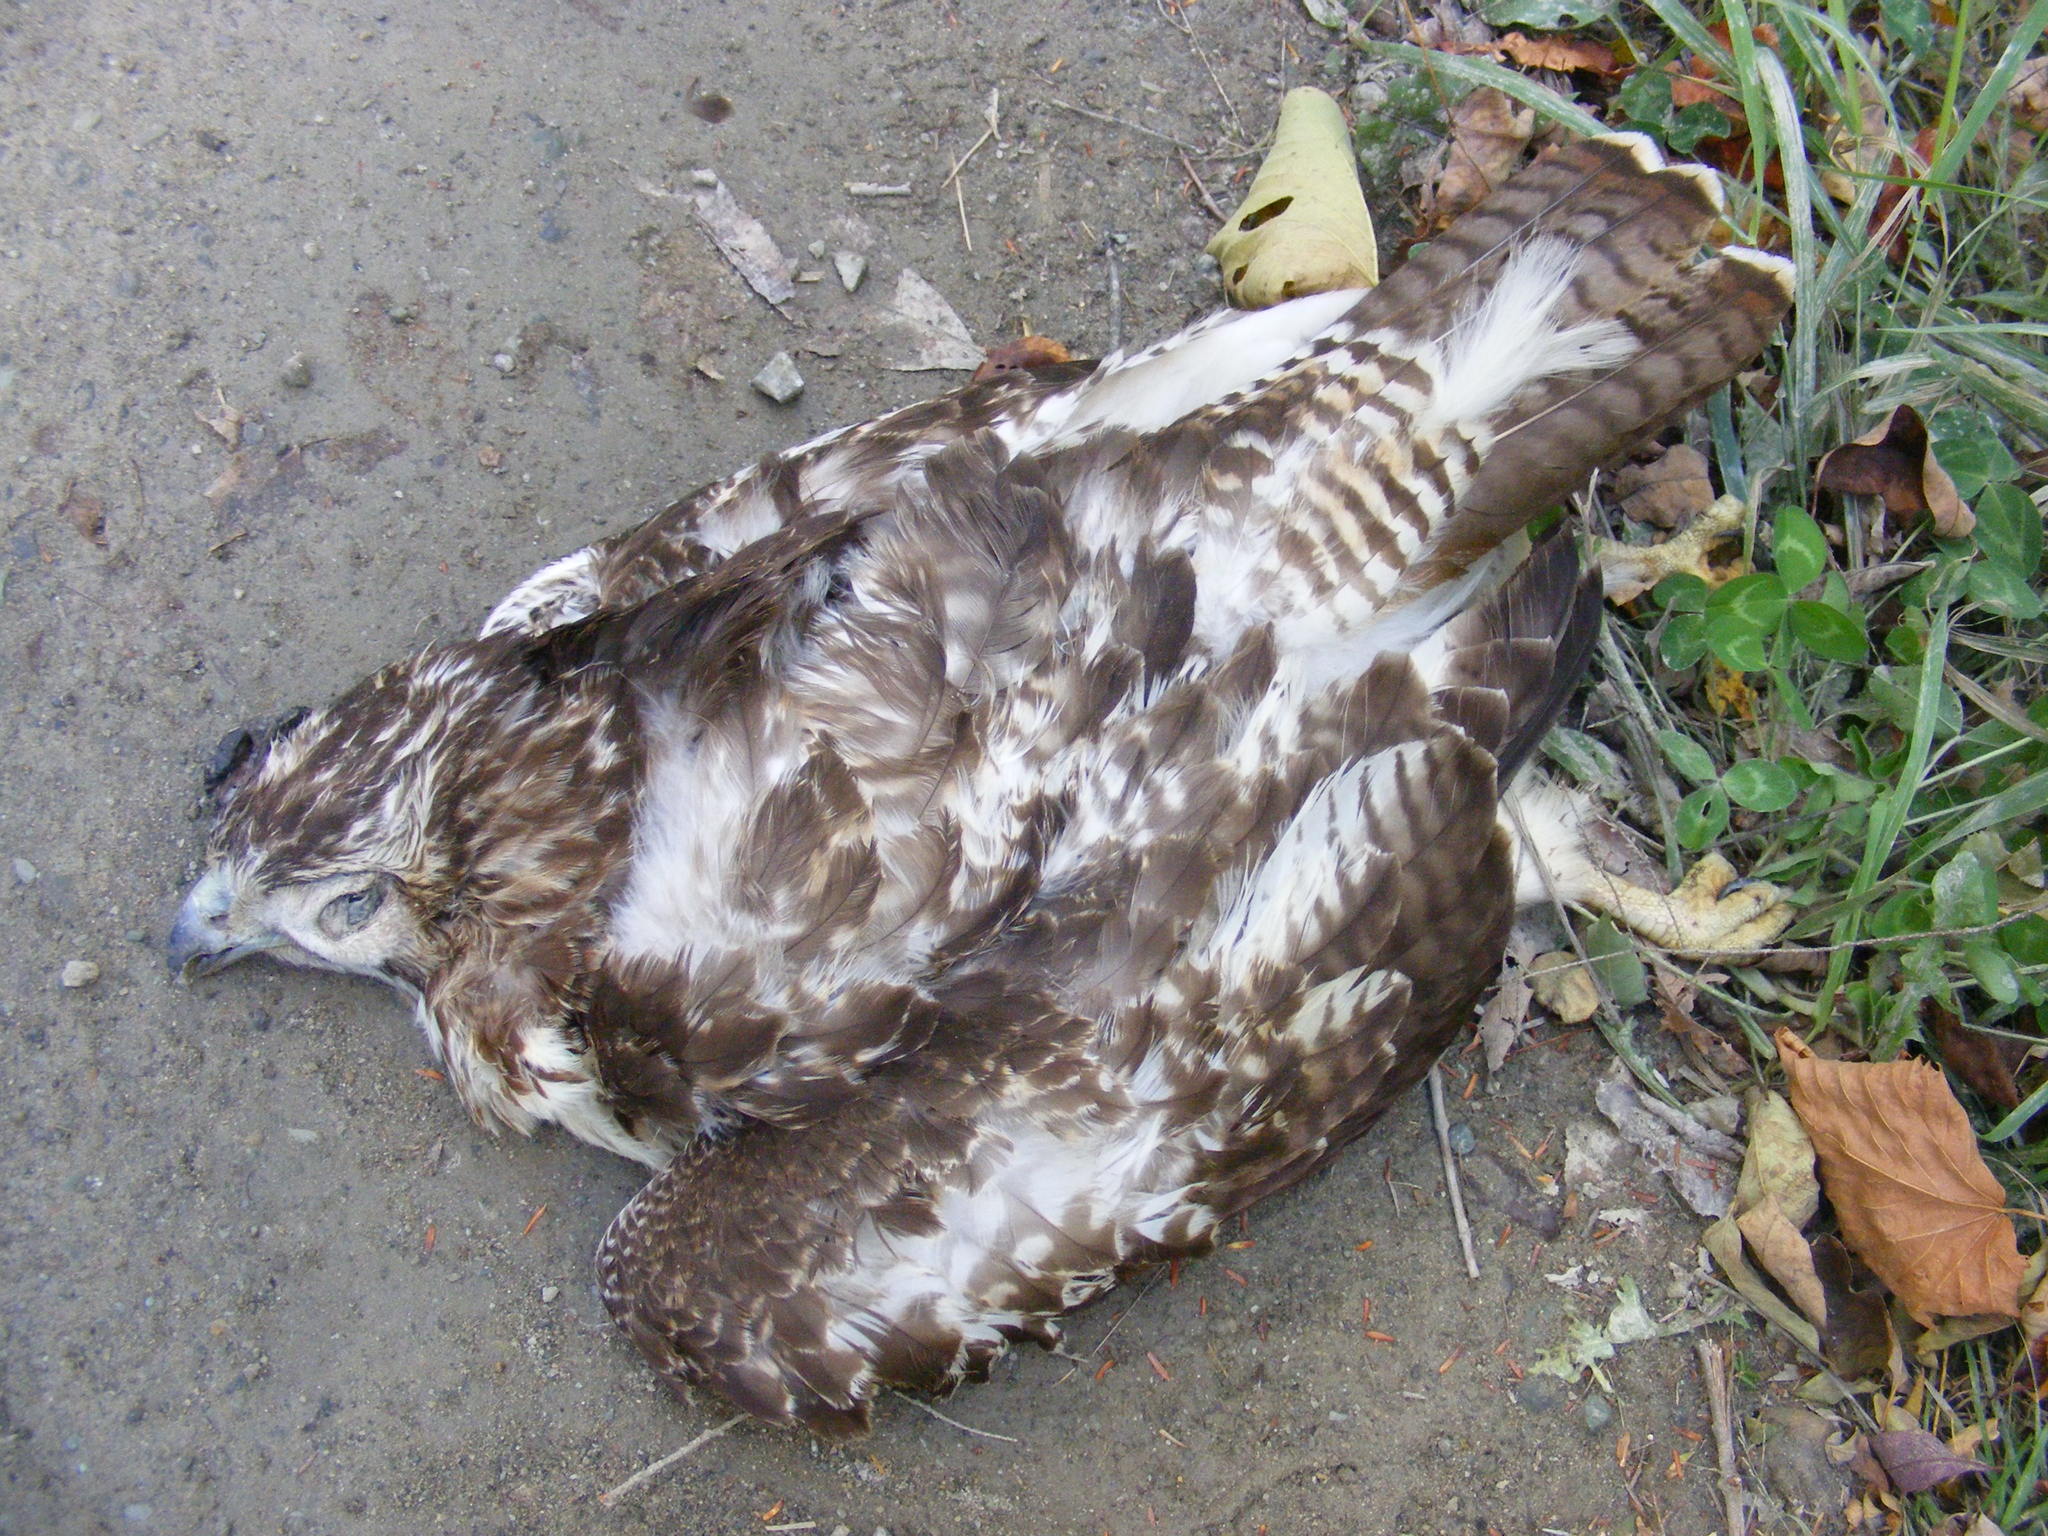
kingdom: Animalia
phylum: Chordata
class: Aves
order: Accipitriformes
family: Accipitridae
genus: Buteo
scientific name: Buteo jamaicensis
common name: Red-tailed hawk
